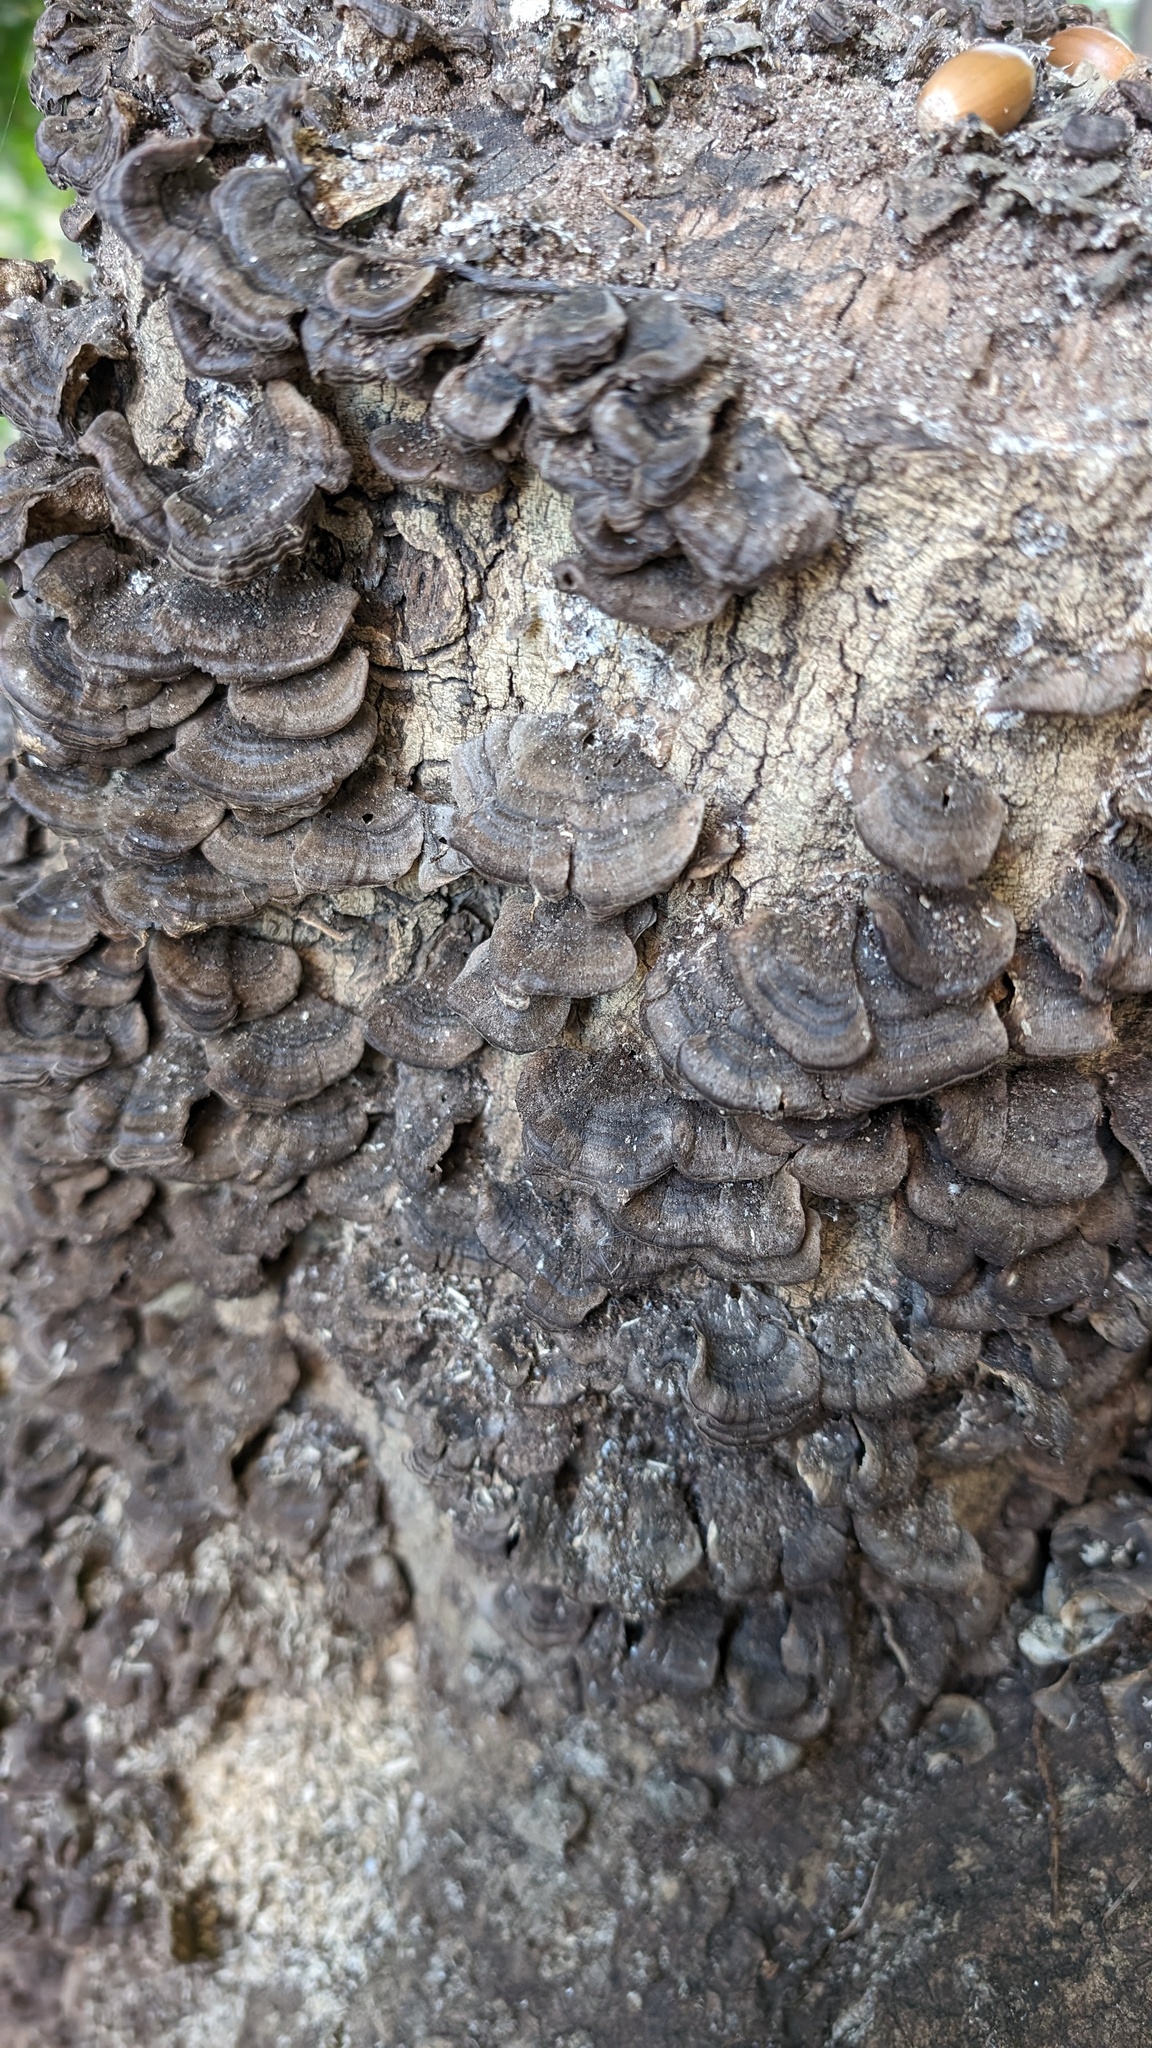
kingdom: Fungi
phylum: Basidiomycota
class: Agaricomycetes
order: Polyporales
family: Polyporaceae
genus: Trametes
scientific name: Trametes versicolor
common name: Turkeytail
